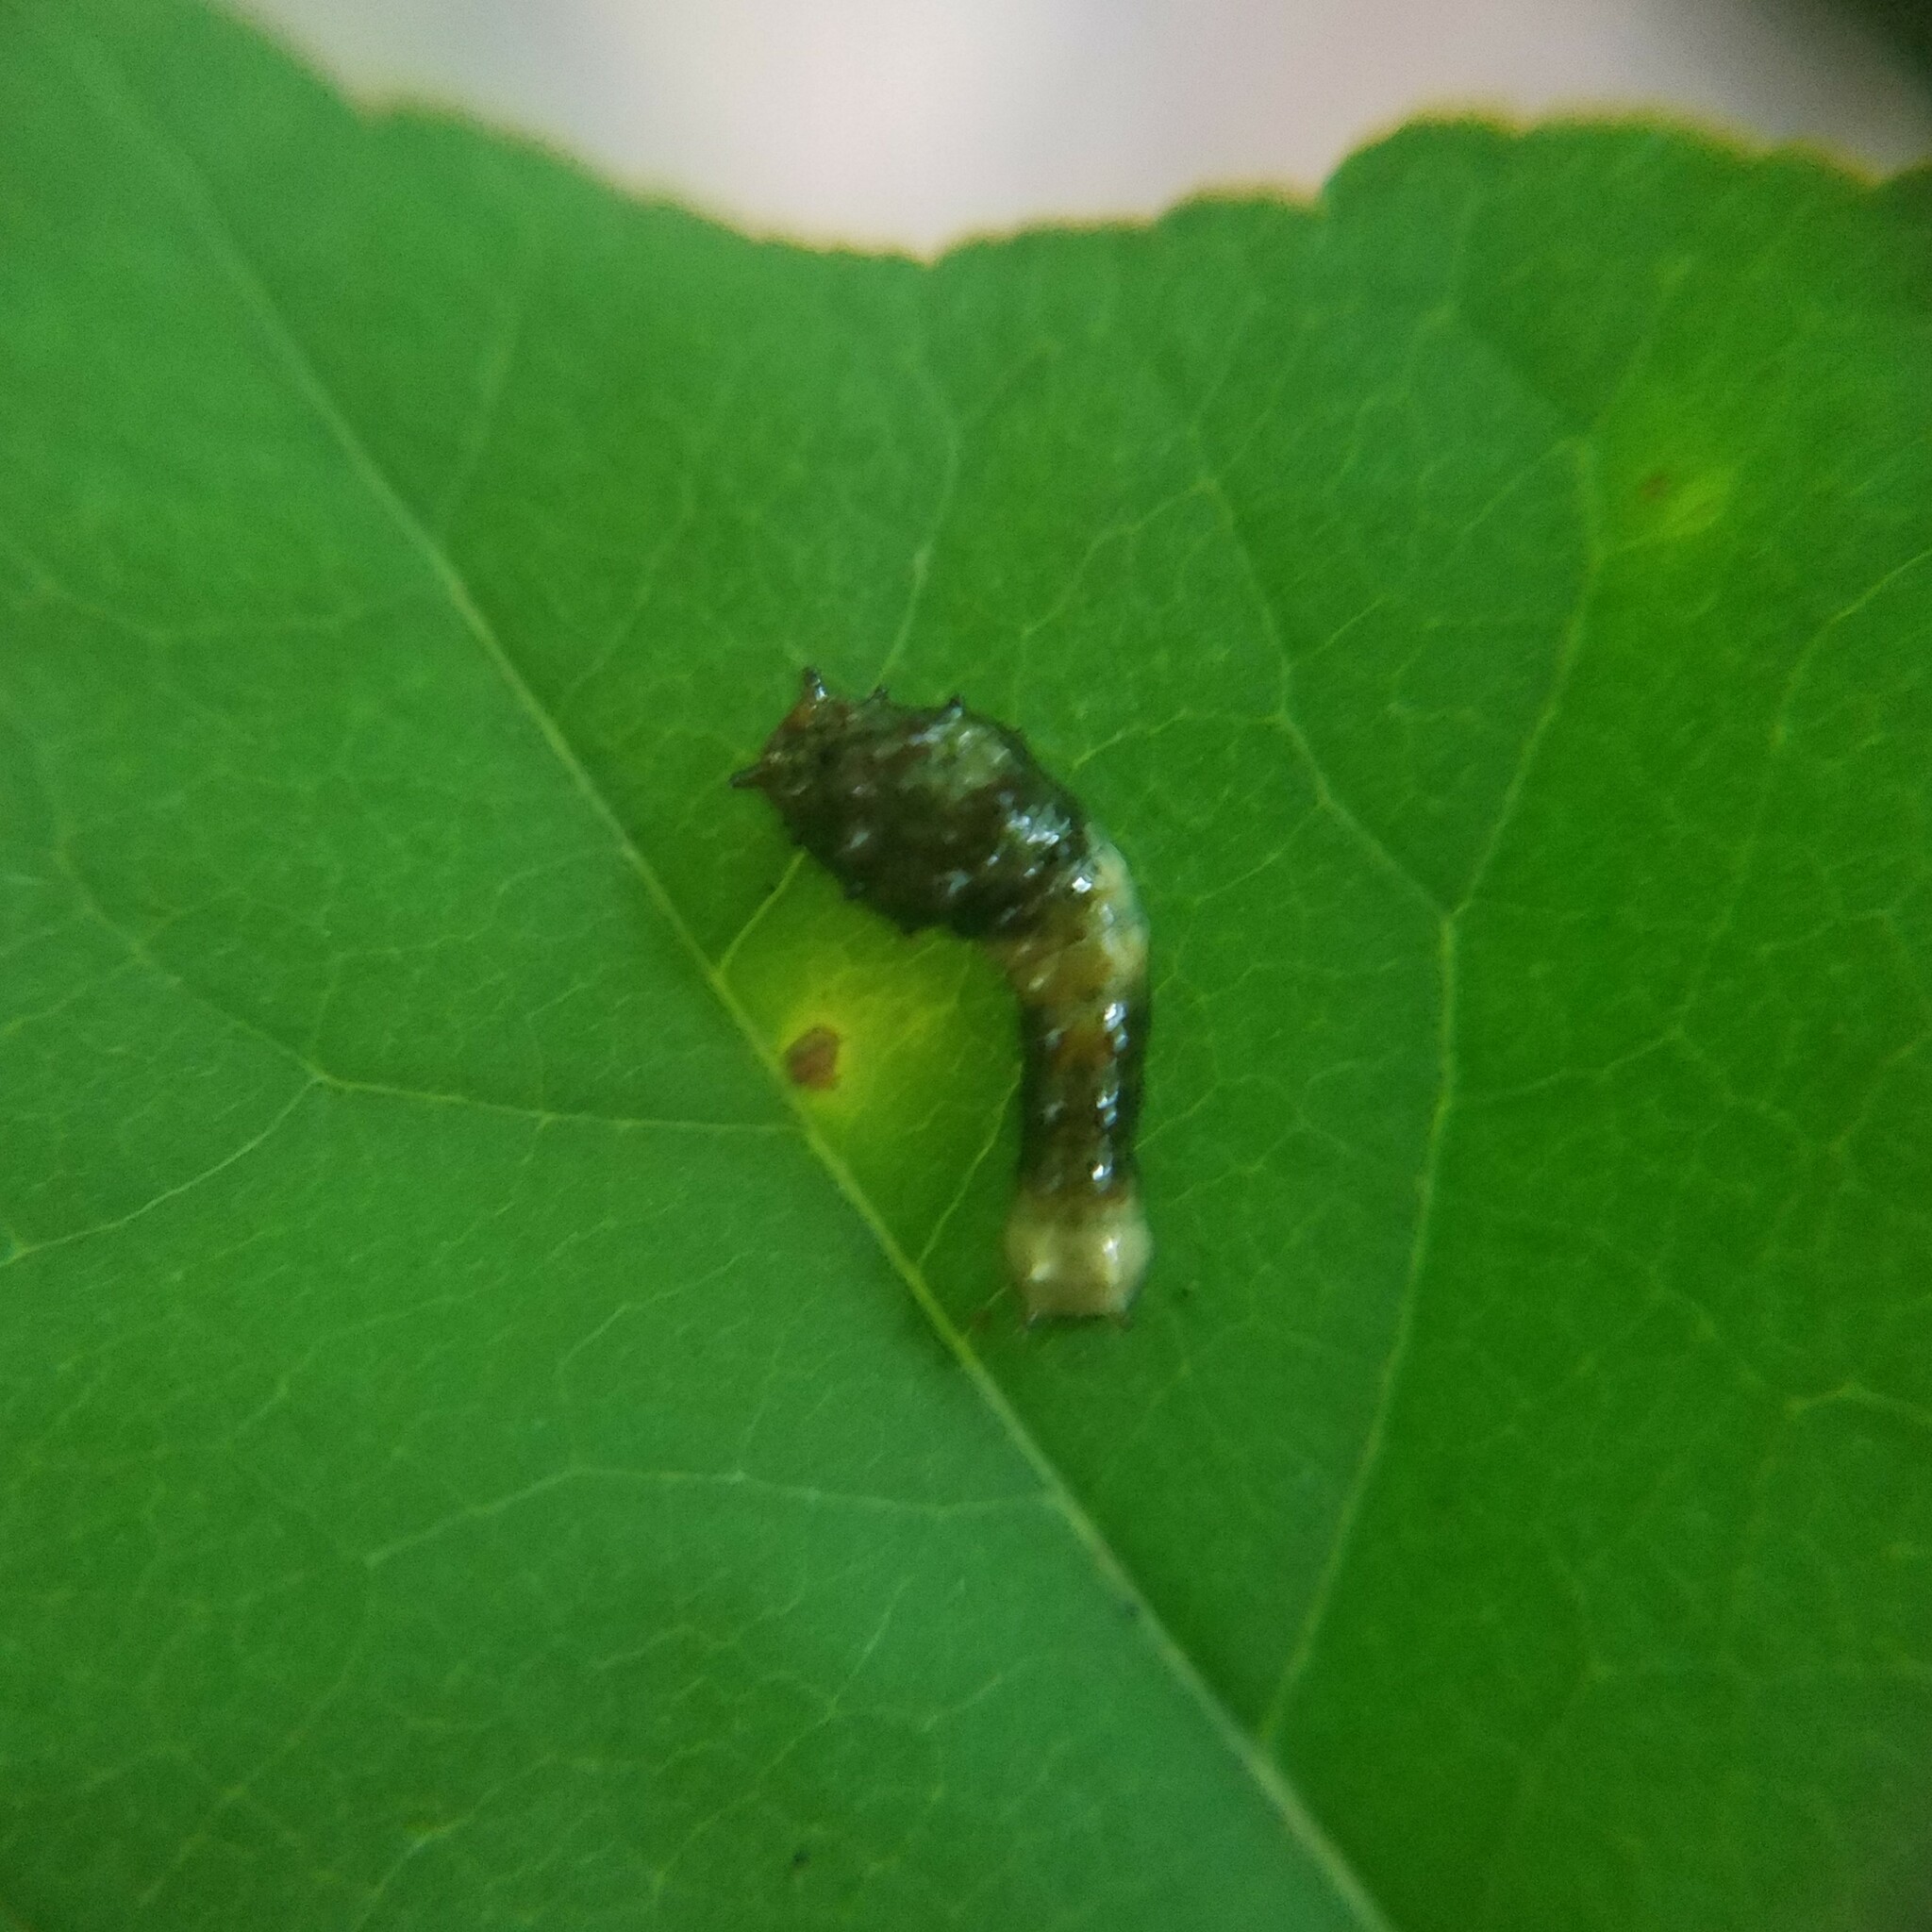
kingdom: Animalia
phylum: Arthropoda
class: Insecta
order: Lepidoptera
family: Papilionidae
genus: Papilio
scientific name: Papilio cresphontes
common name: Giant swallowtail
